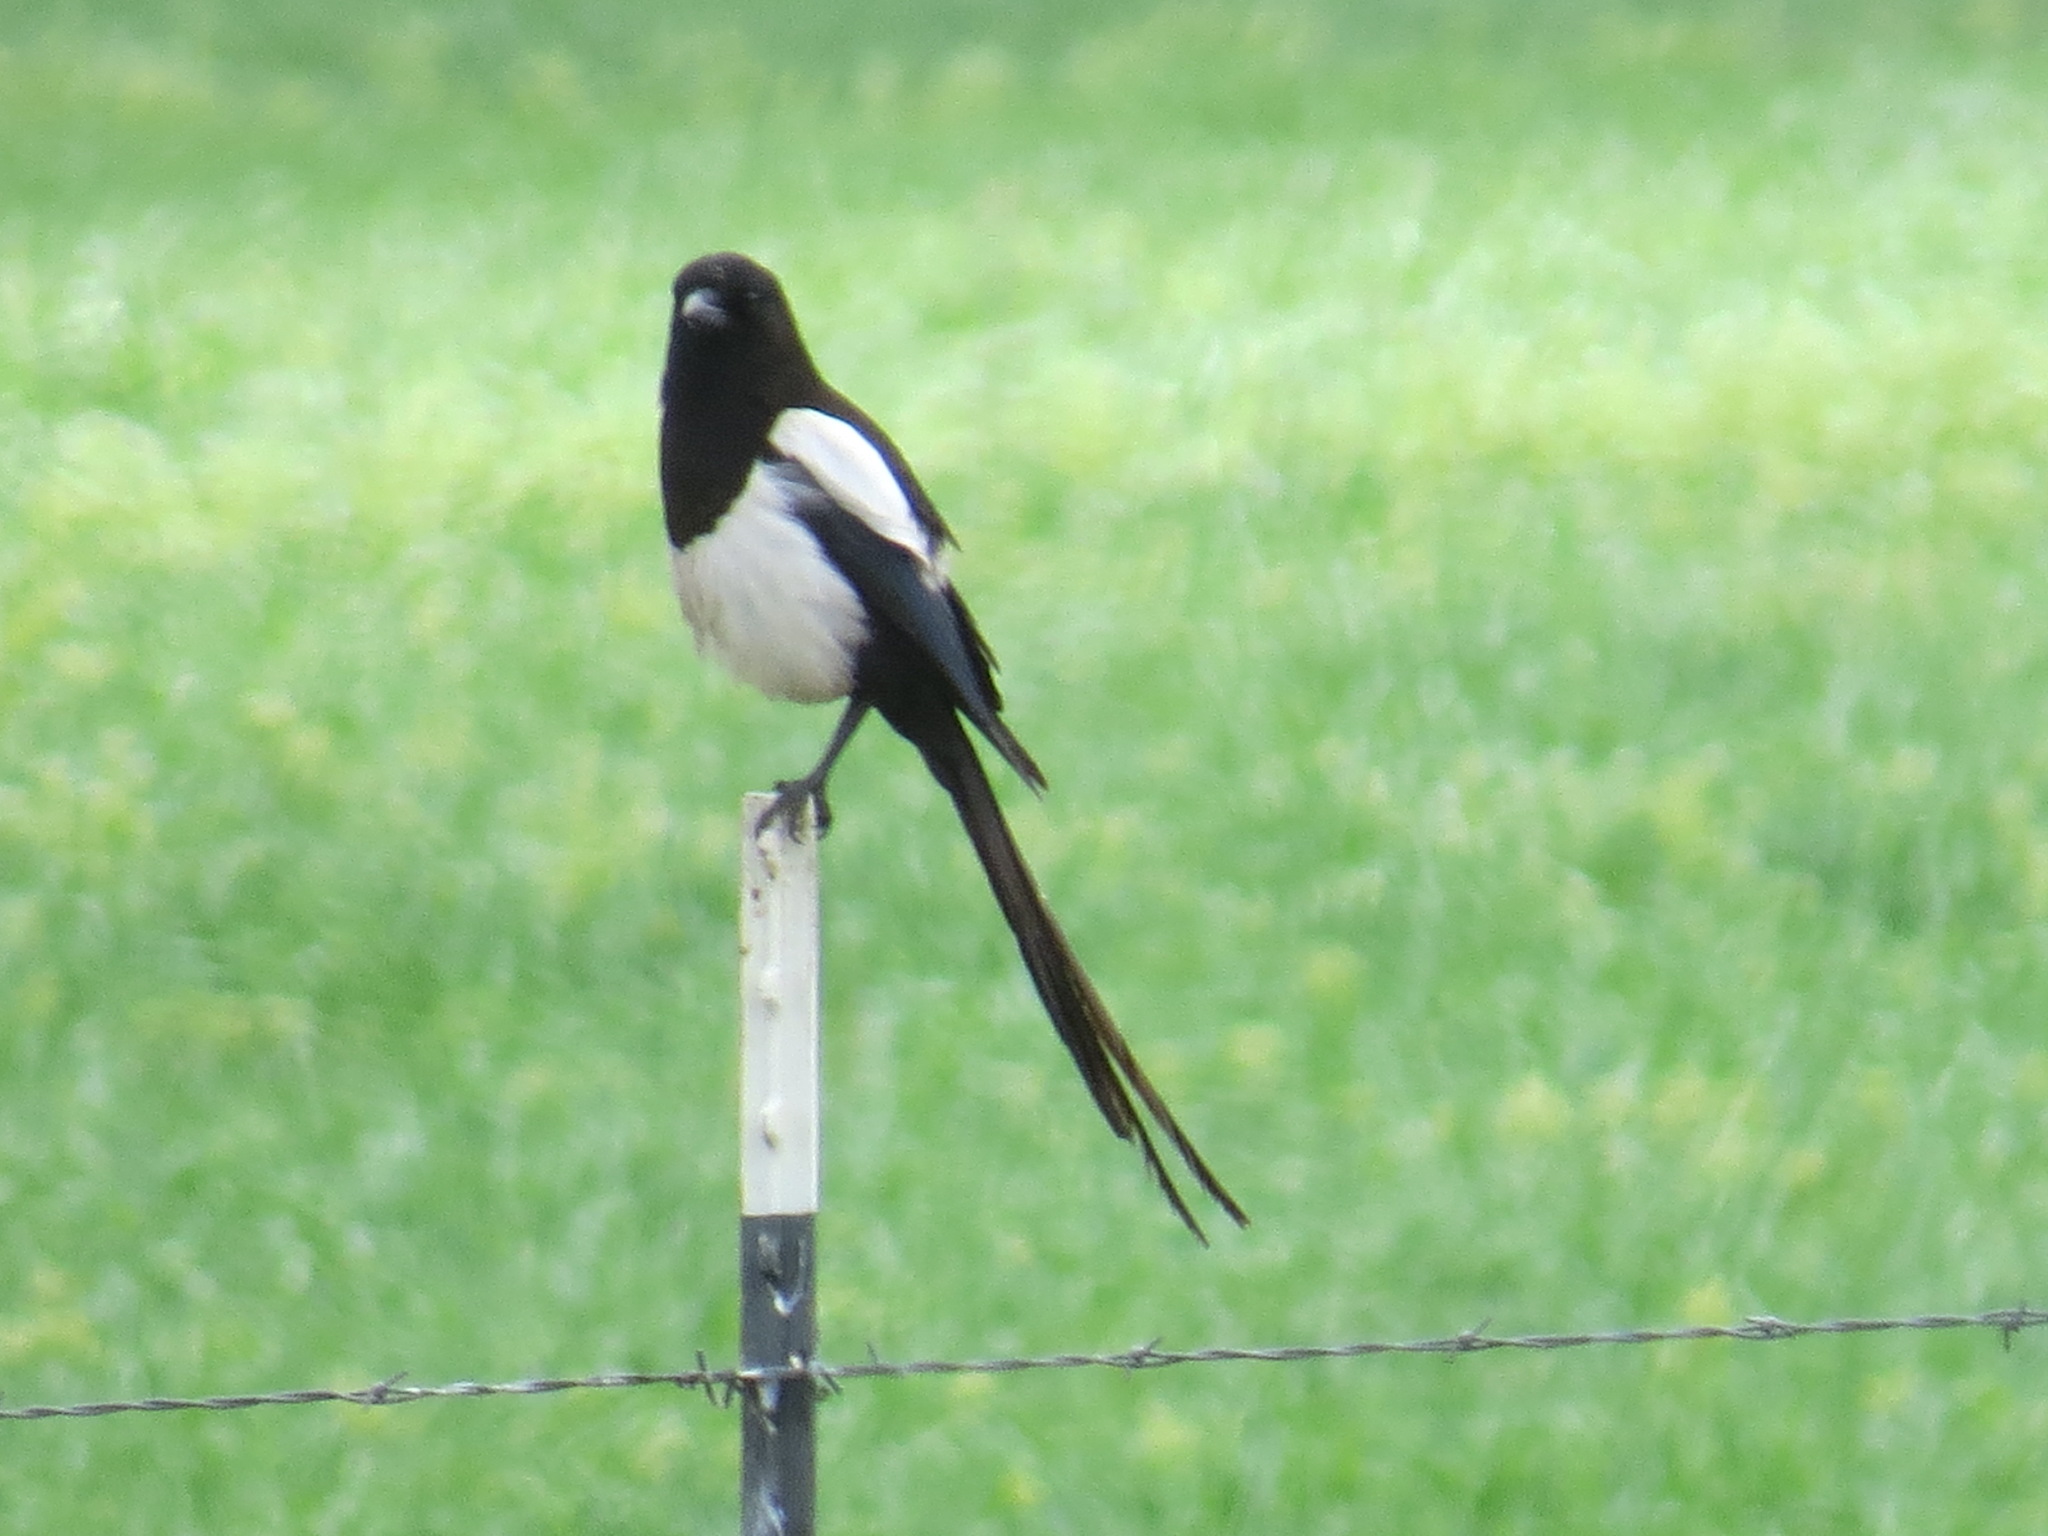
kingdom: Animalia
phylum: Chordata
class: Aves
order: Passeriformes
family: Corvidae
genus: Pica
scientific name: Pica hudsonia
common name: Black-billed magpie
